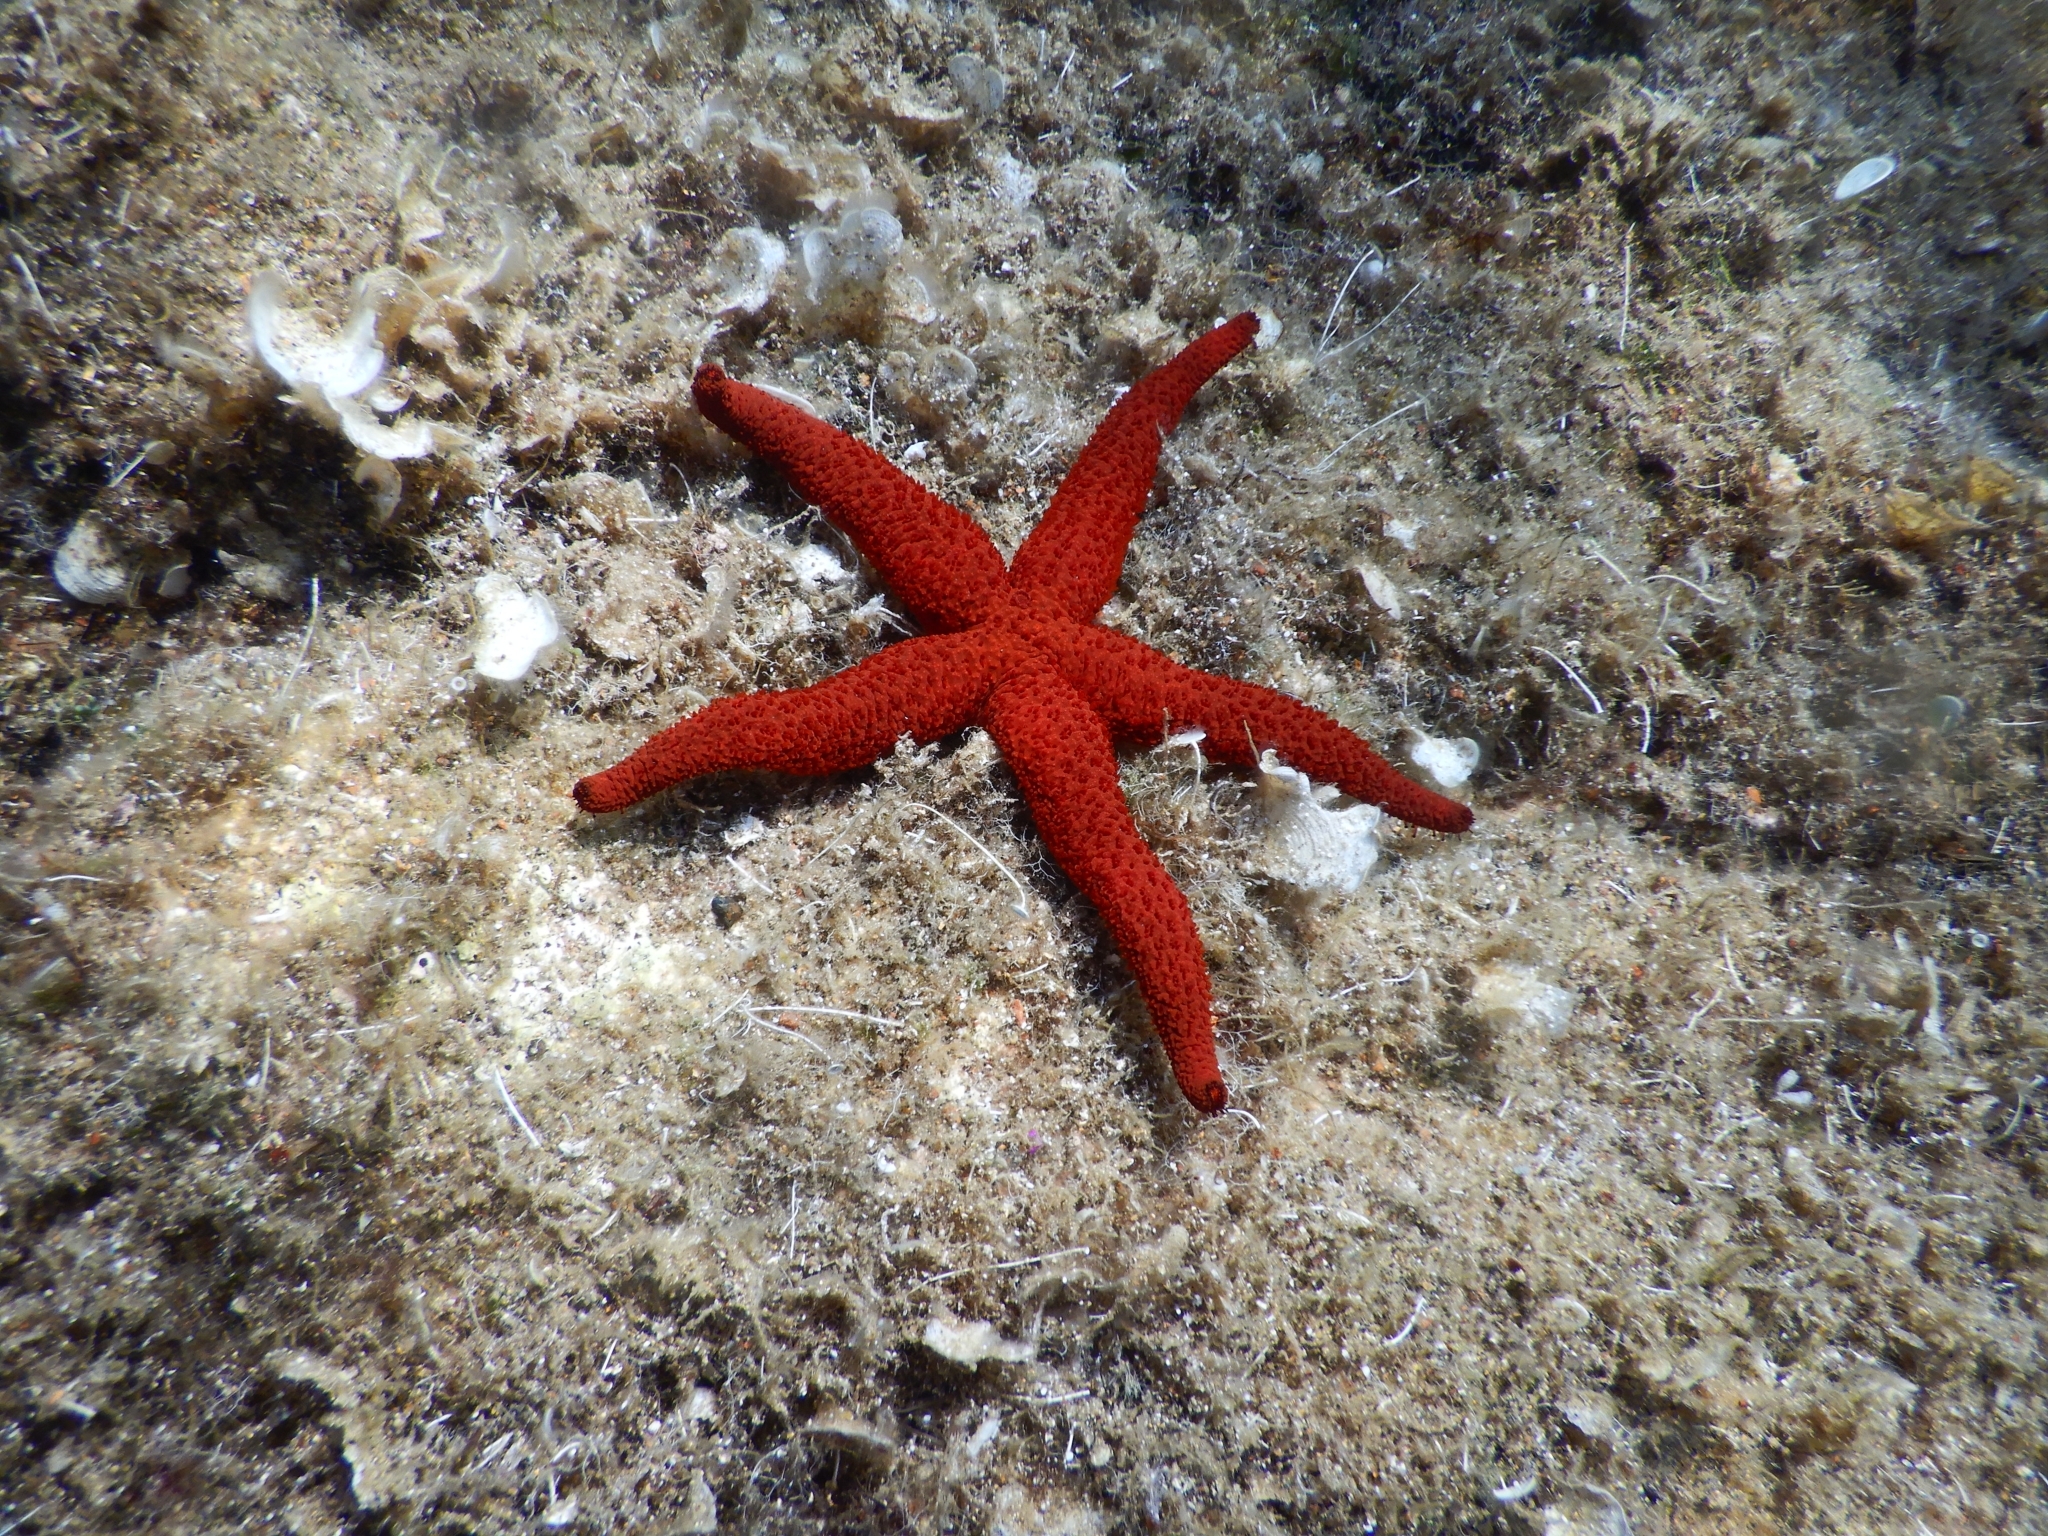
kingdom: Animalia
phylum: Echinodermata
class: Asteroidea
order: Spinulosida
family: Echinasteridae
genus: Echinaster
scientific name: Echinaster sepositus
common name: Red starfish
